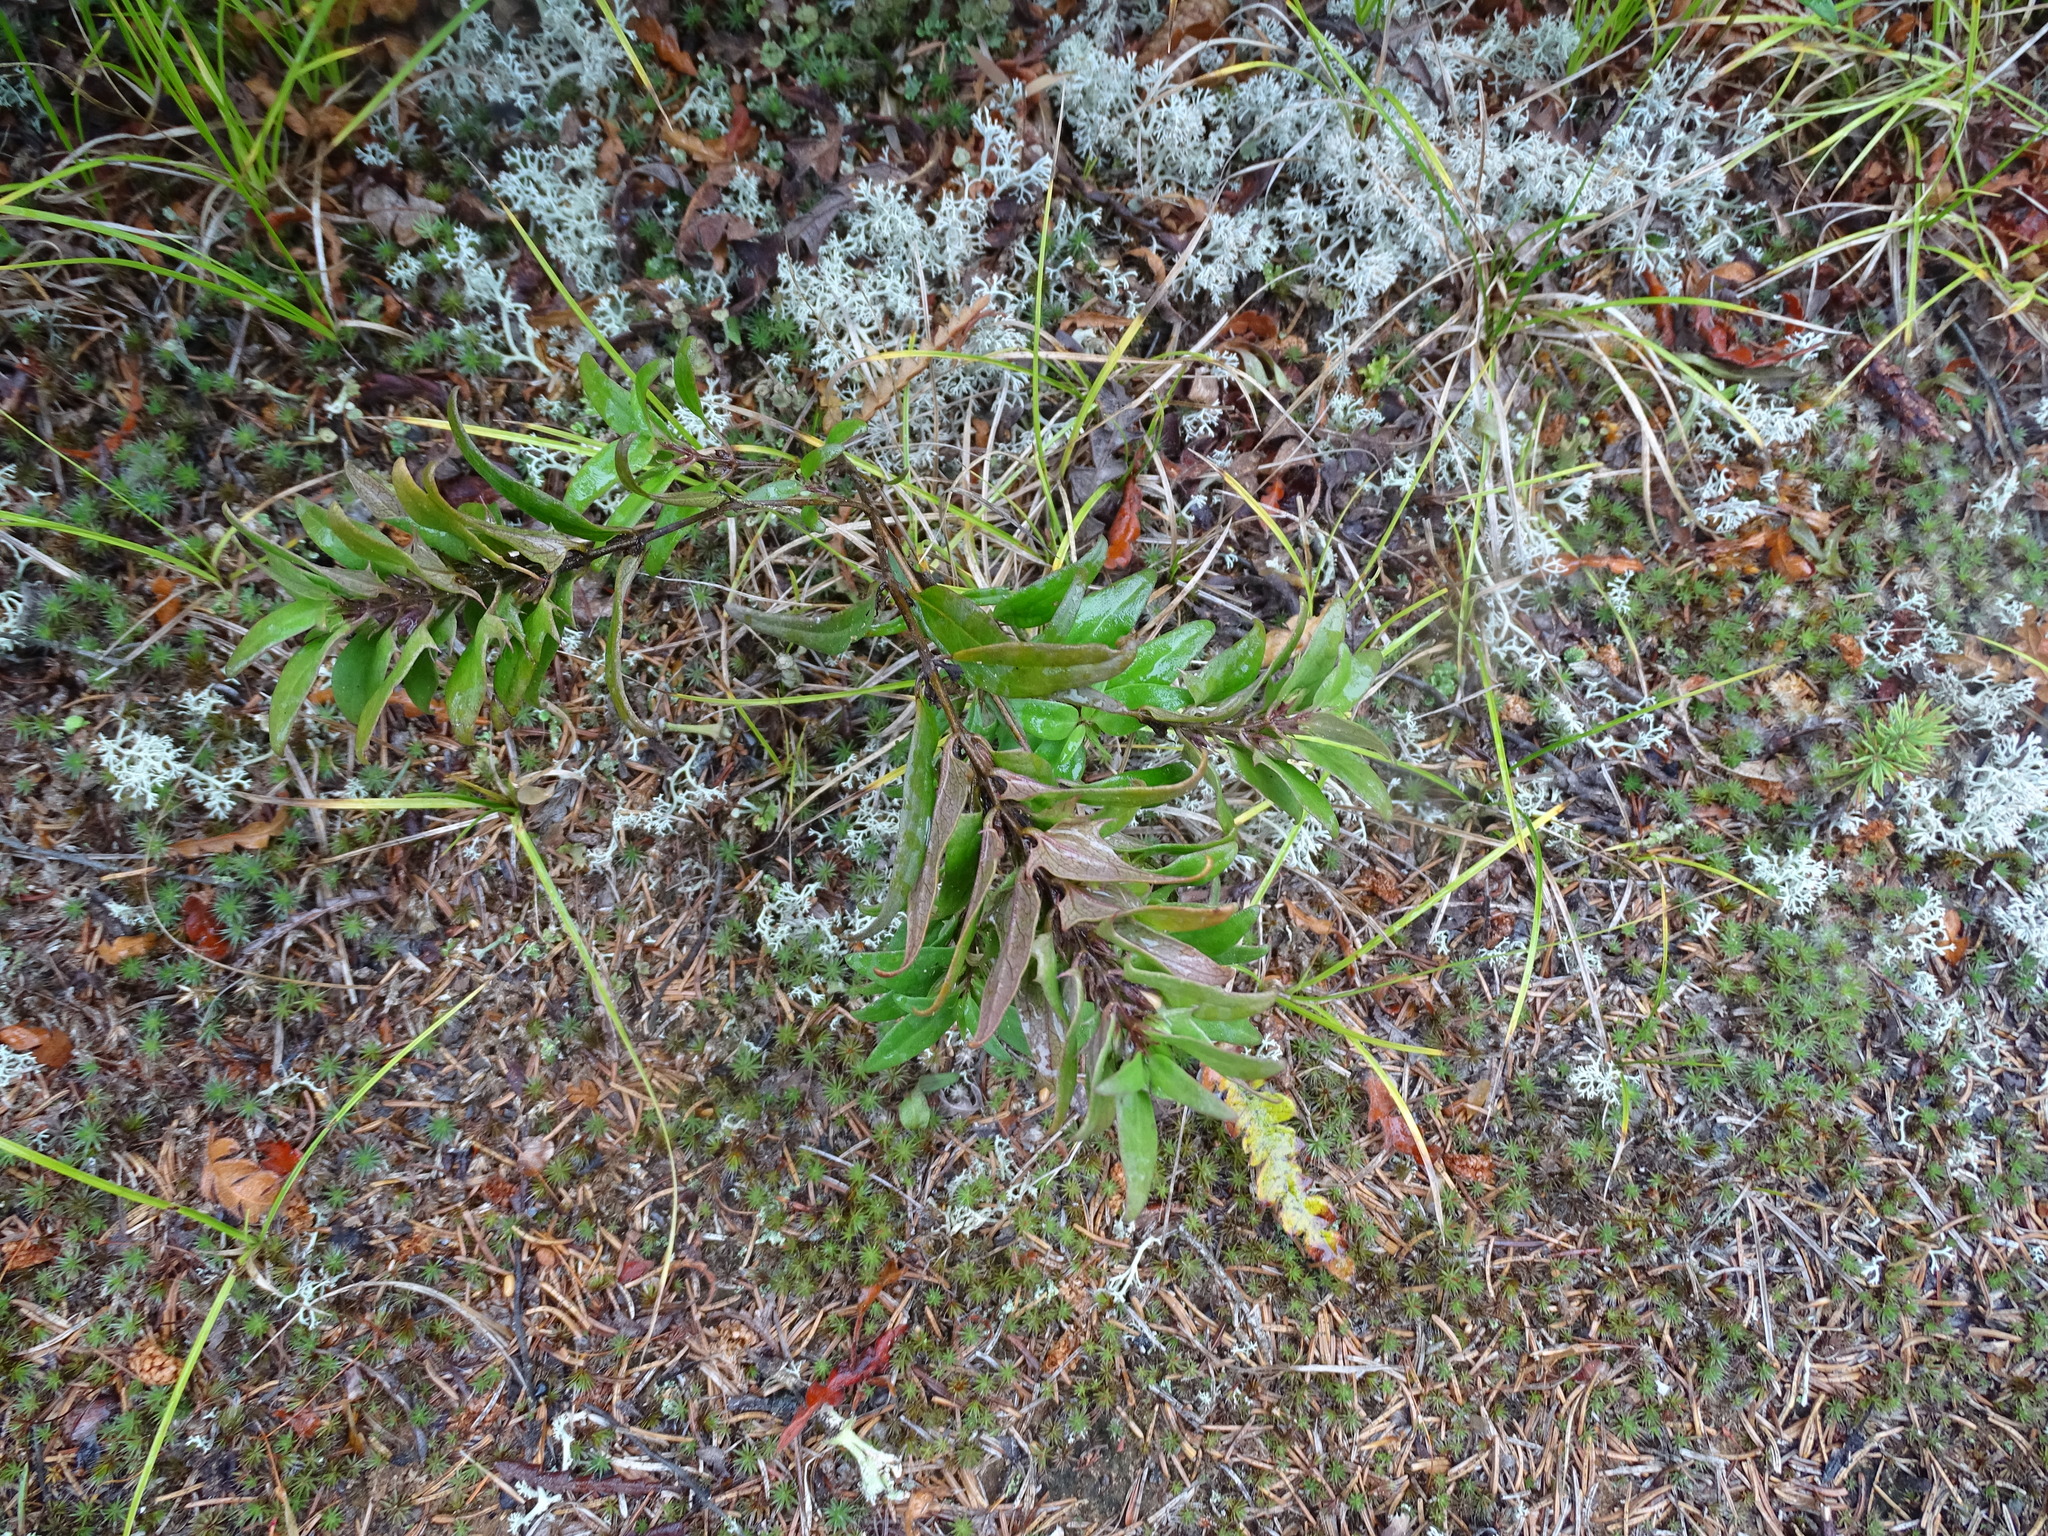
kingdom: Plantae
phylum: Tracheophyta
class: Magnoliopsida
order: Lamiales
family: Orobanchaceae
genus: Melampyrum
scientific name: Melampyrum lineare
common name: American cow-wheat
